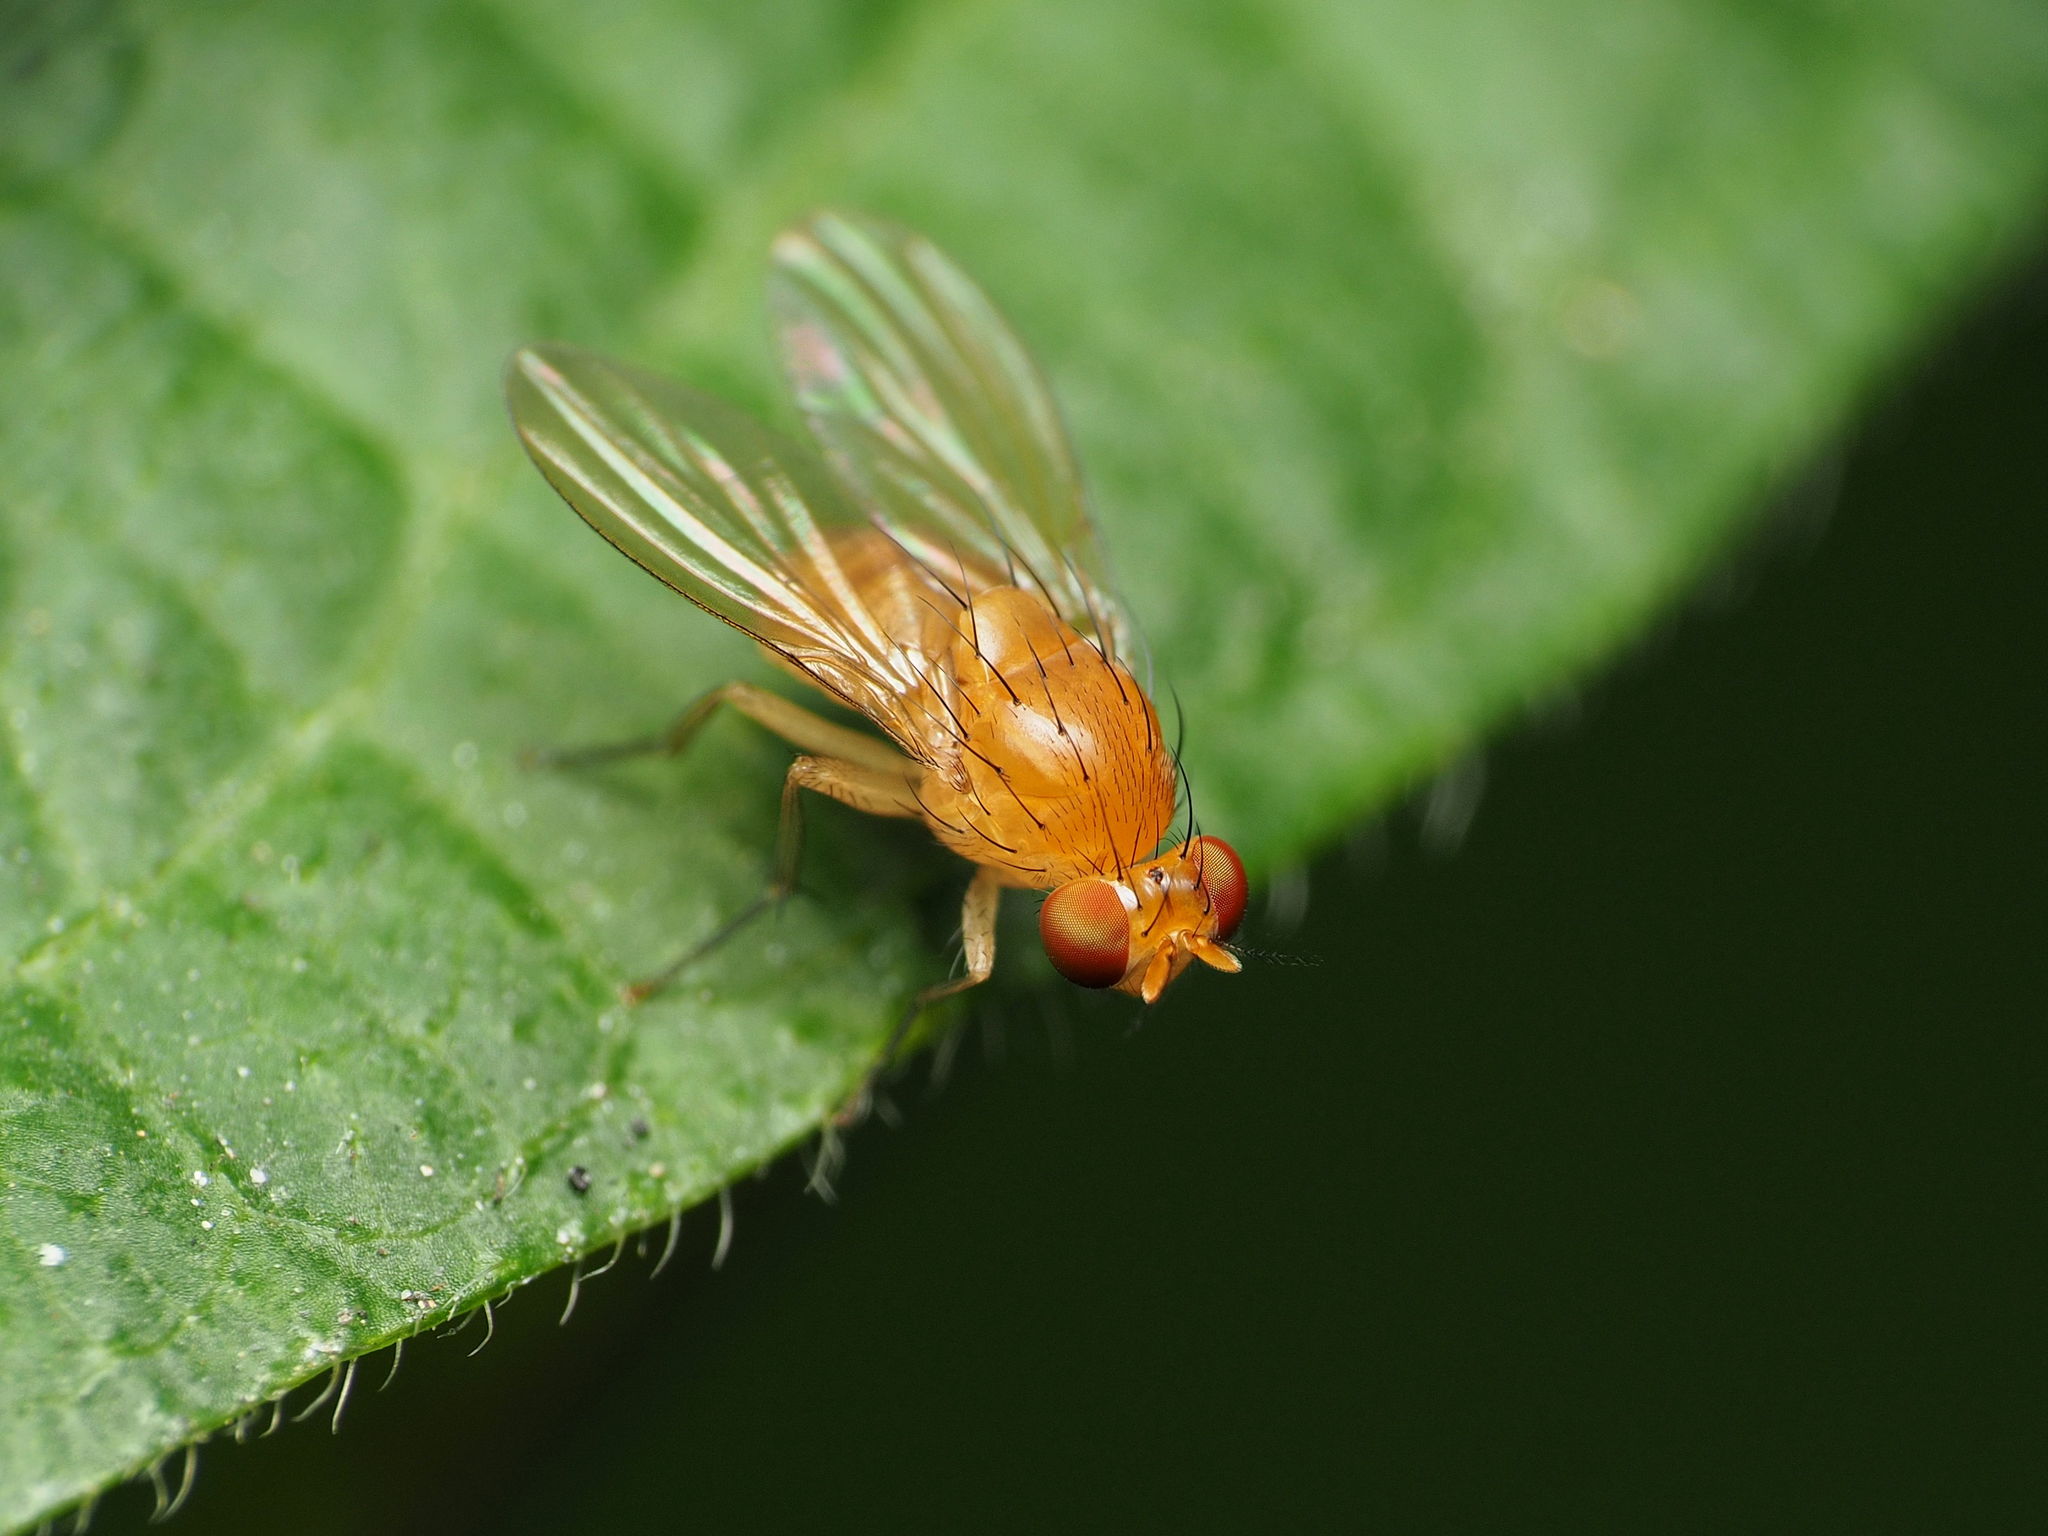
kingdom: Animalia
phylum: Arthropoda
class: Insecta
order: Diptera
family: Lauxaniidae
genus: Neogriphoneura
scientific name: Neogriphoneura sordida
